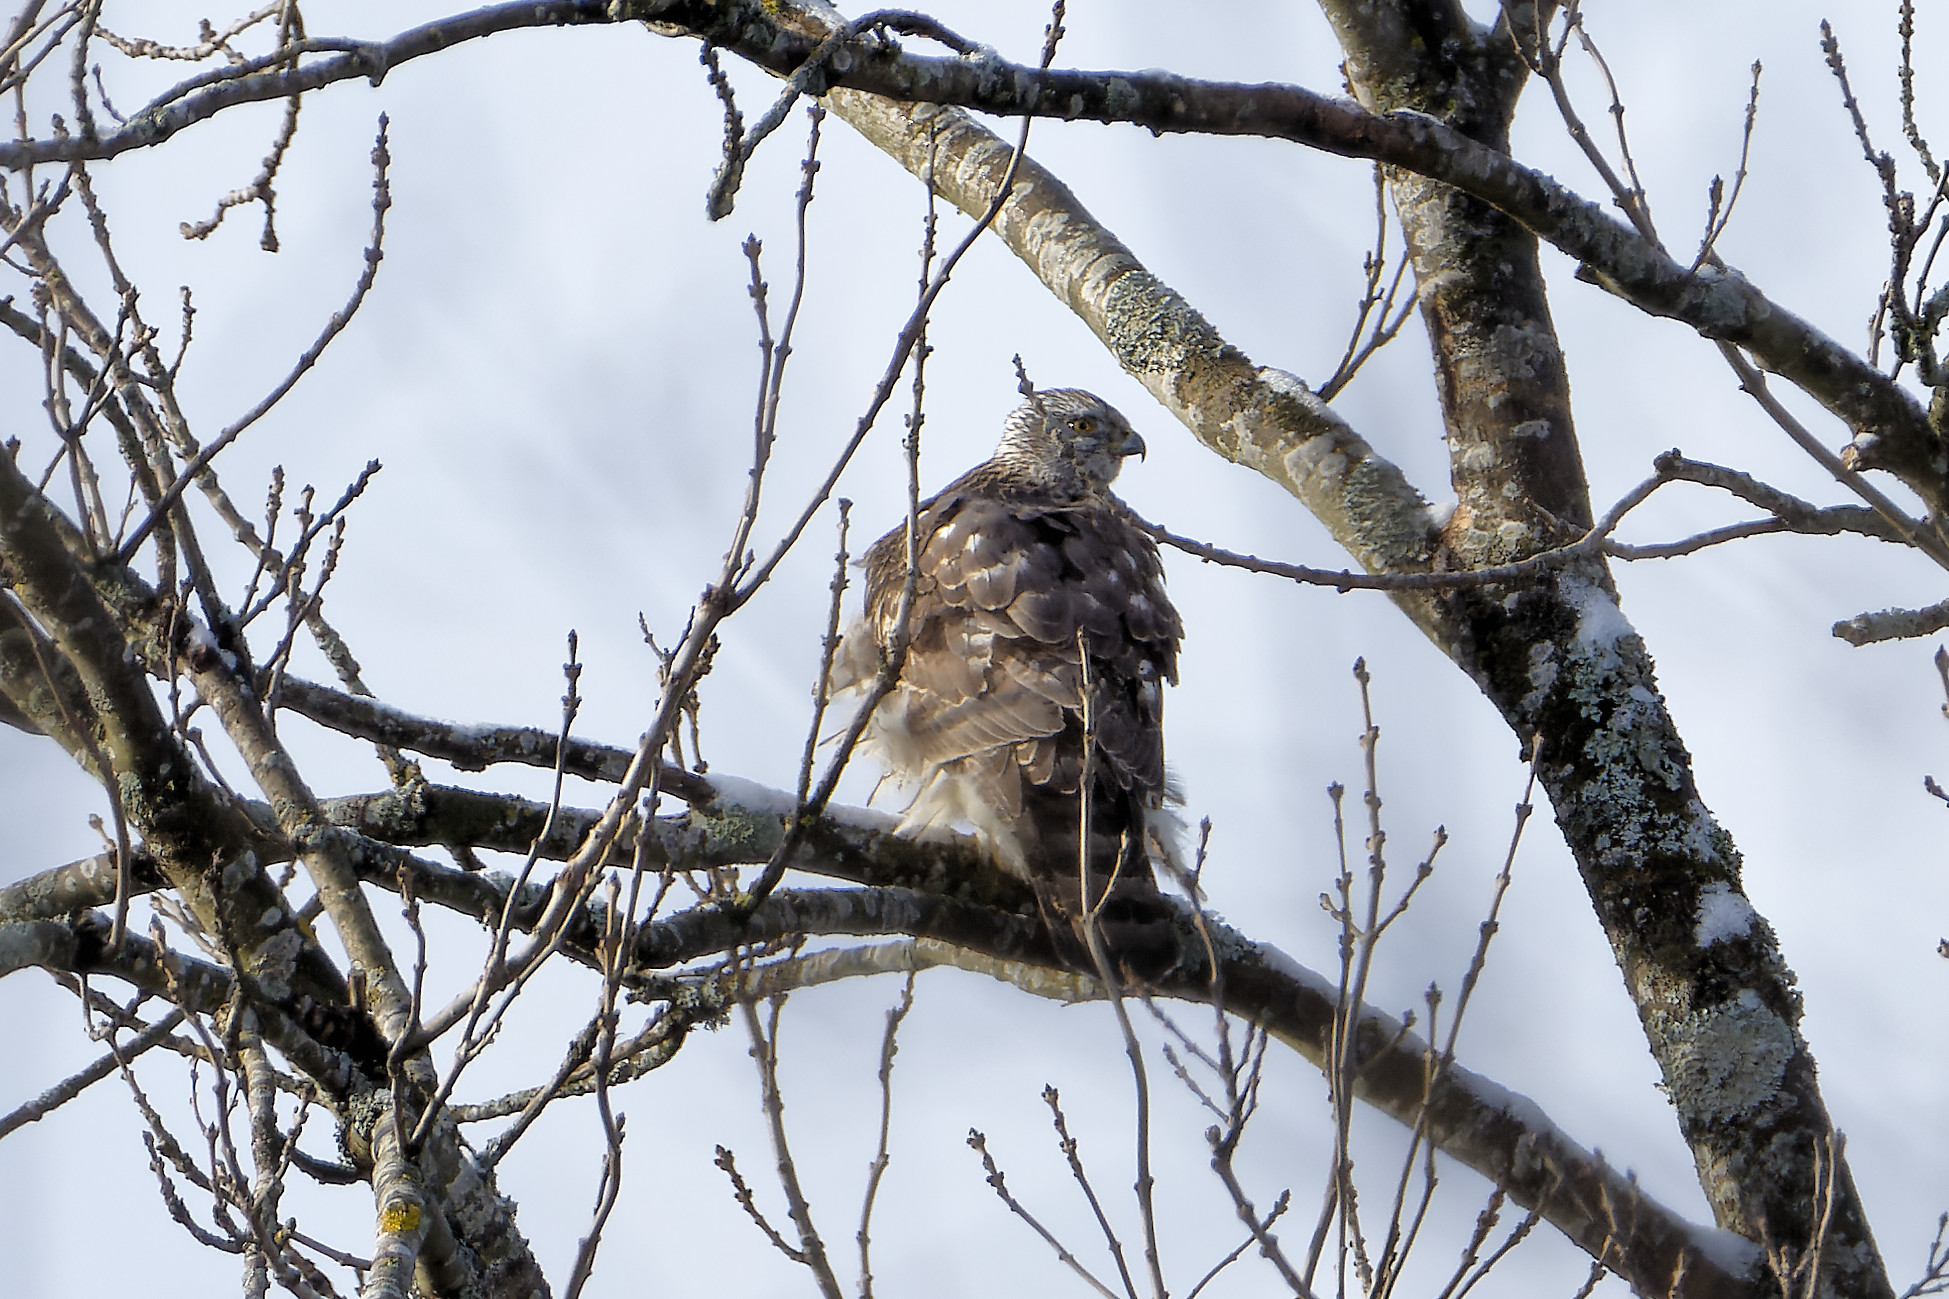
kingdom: Animalia
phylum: Chordata
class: Aves
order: Accipitriformes
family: Accipitridae
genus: Accipiter
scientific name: Accipiter gentilis
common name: Northern goshawk
